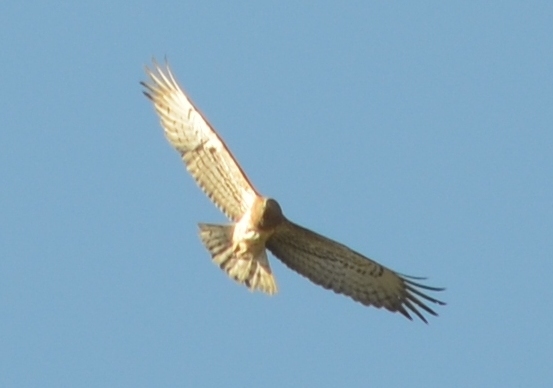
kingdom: Animalia
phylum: Chordata
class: Aves
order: Accipitriformes
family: Accipitridae
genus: Circaetus
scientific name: Circaetus gallicus
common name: Short-toed snake eagle
